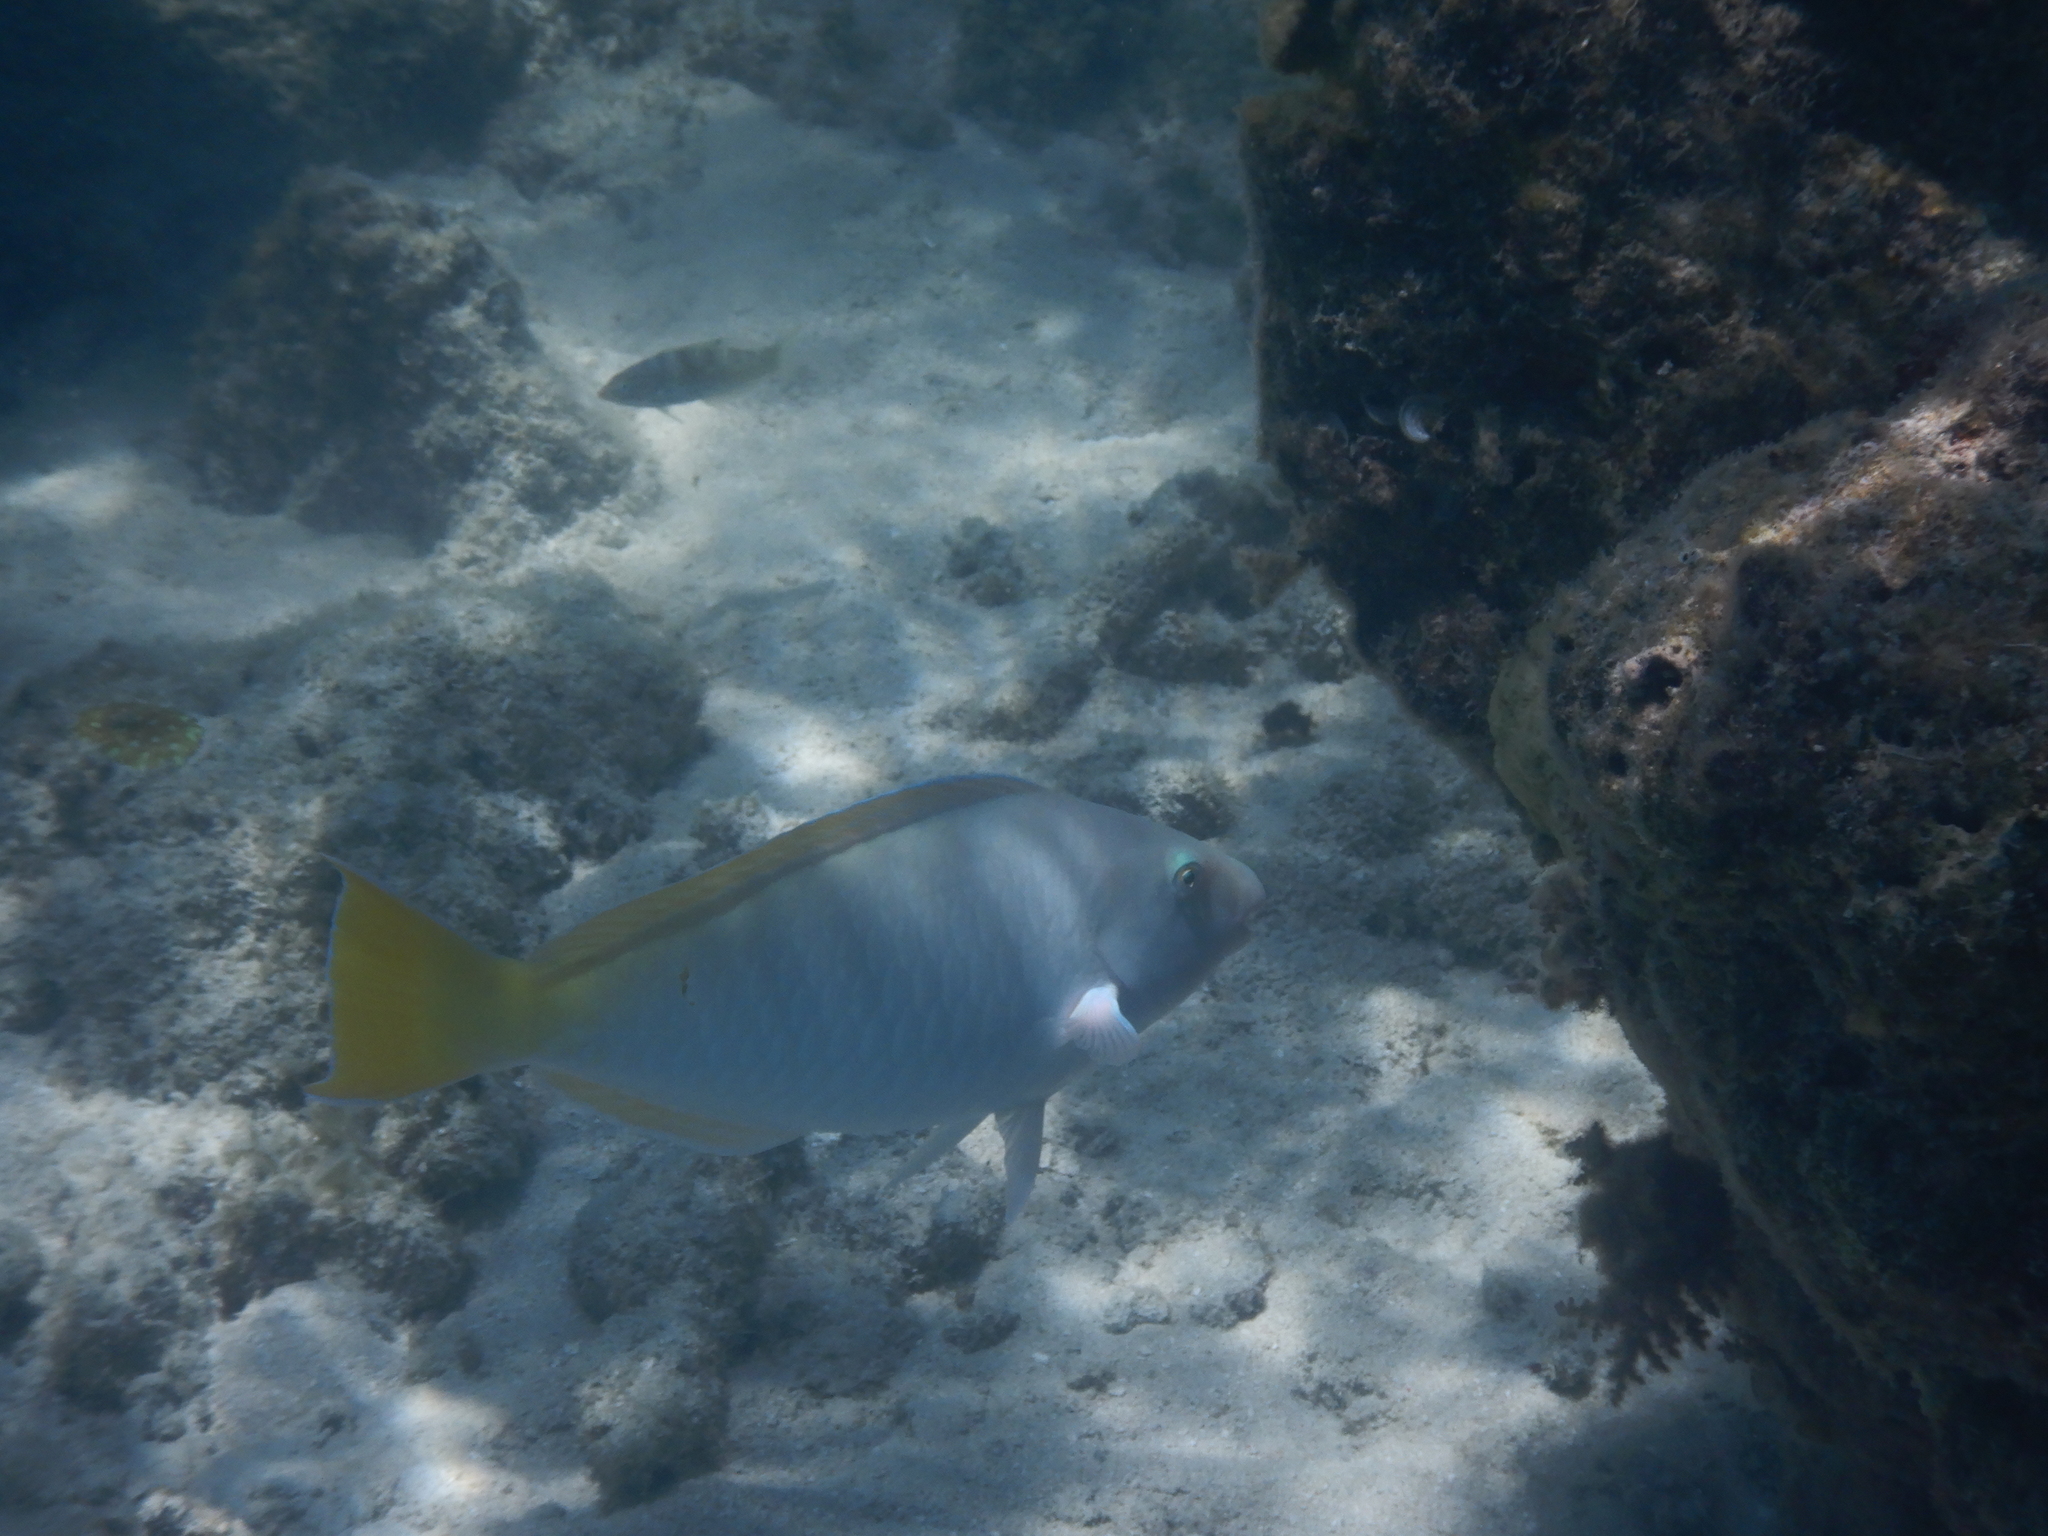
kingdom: Animalia
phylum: Chordata
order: Perciformes
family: Scaridae
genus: Hipposcarus
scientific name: Hipposcarus longiceps
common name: Pacific longnose parrotfish
